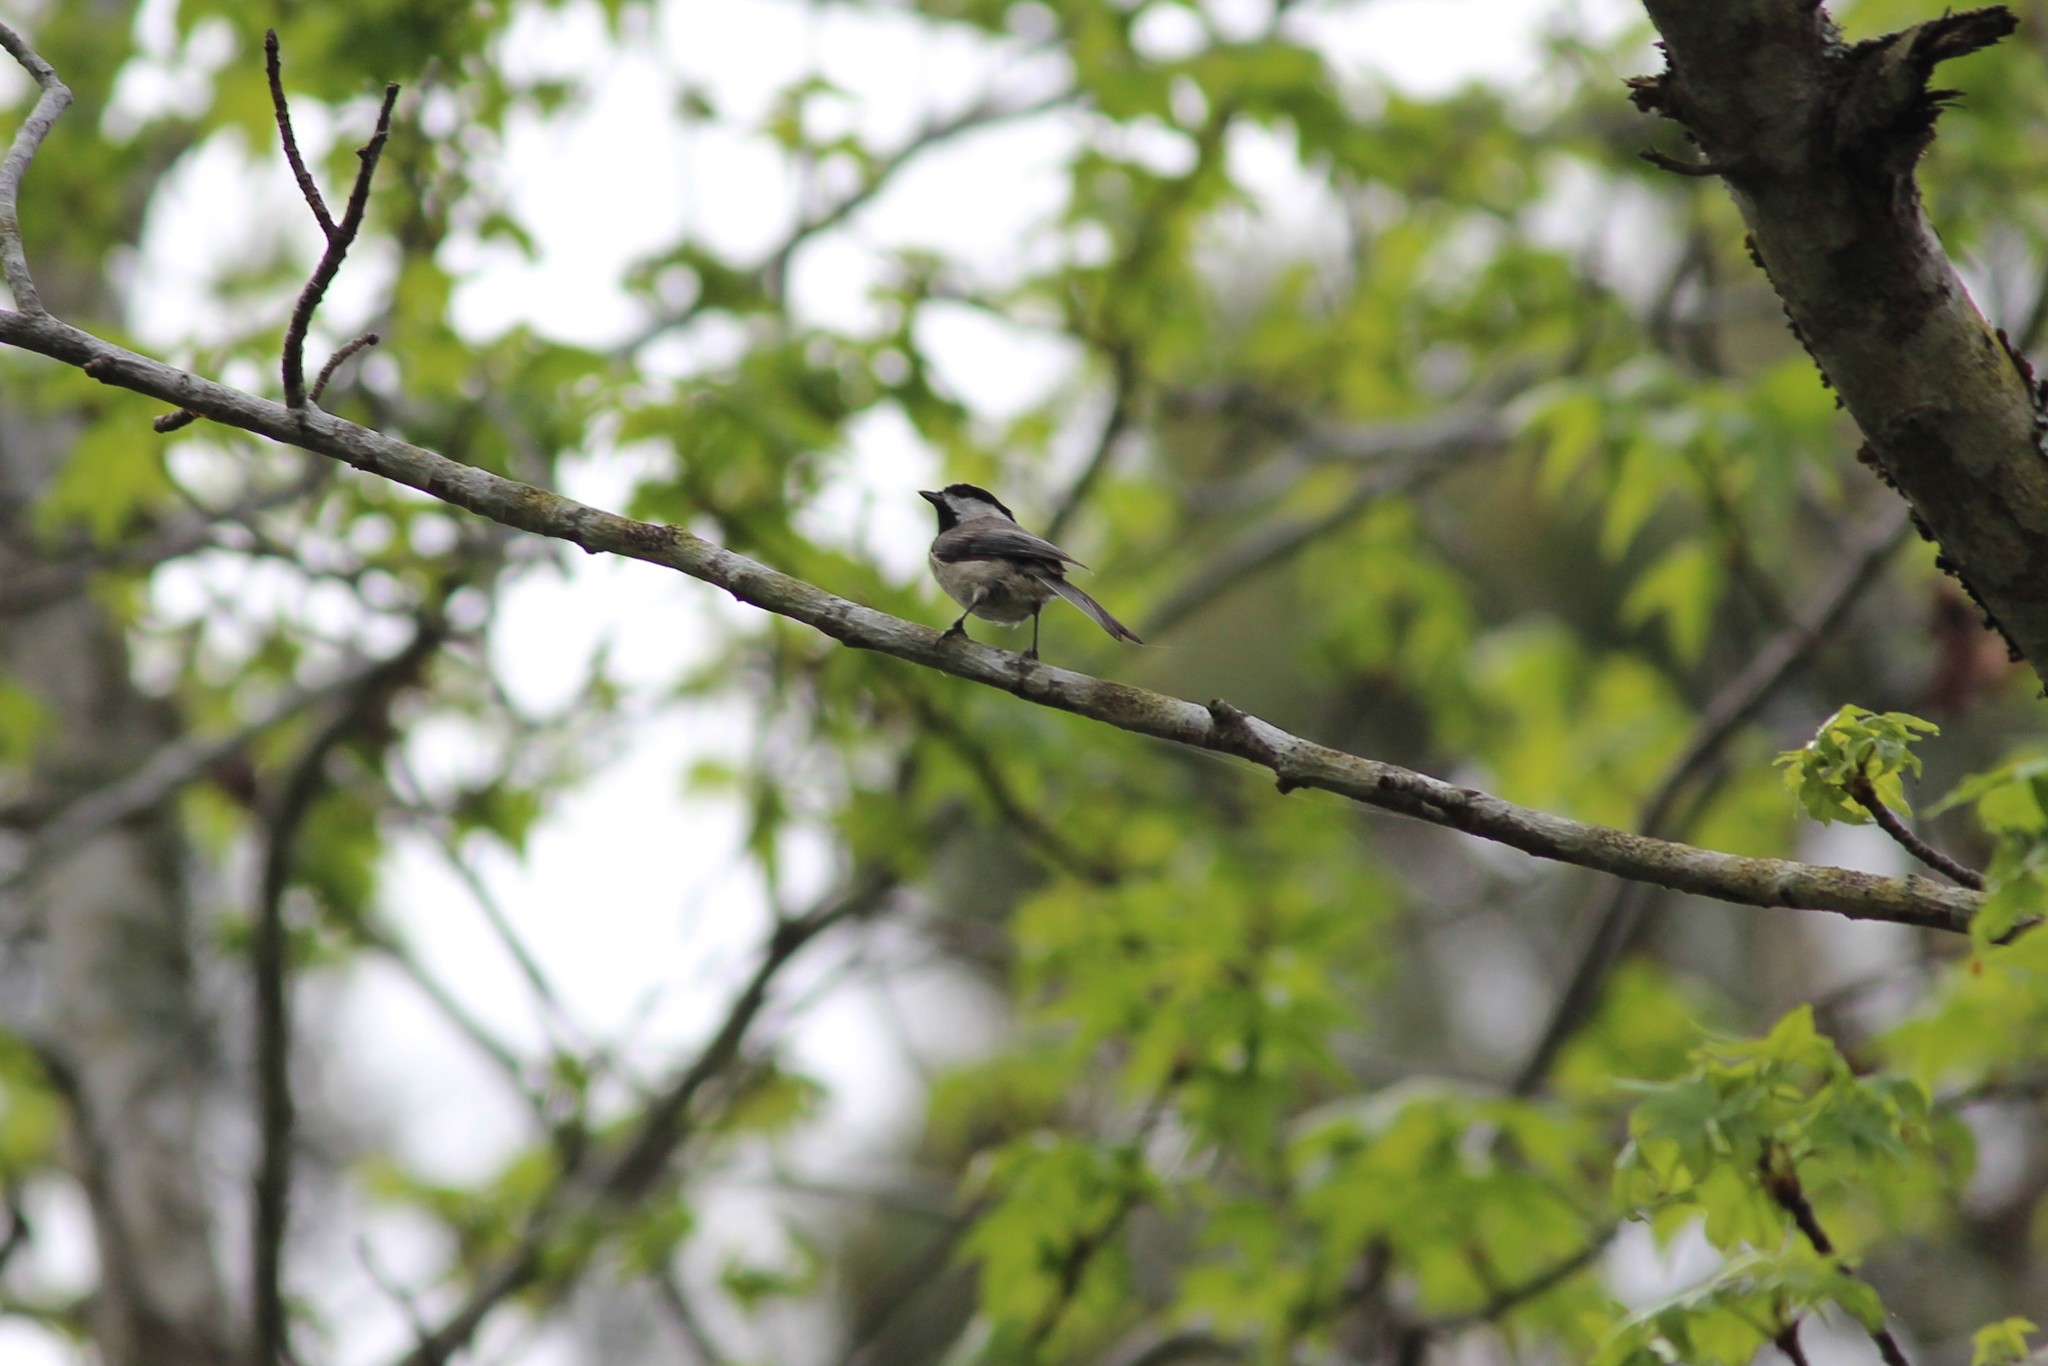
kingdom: Animalia
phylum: Chordata
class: Aves
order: Passeriformes
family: Paridae
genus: Poecile
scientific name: Poecile carolinensis
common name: Carolina chickadee
